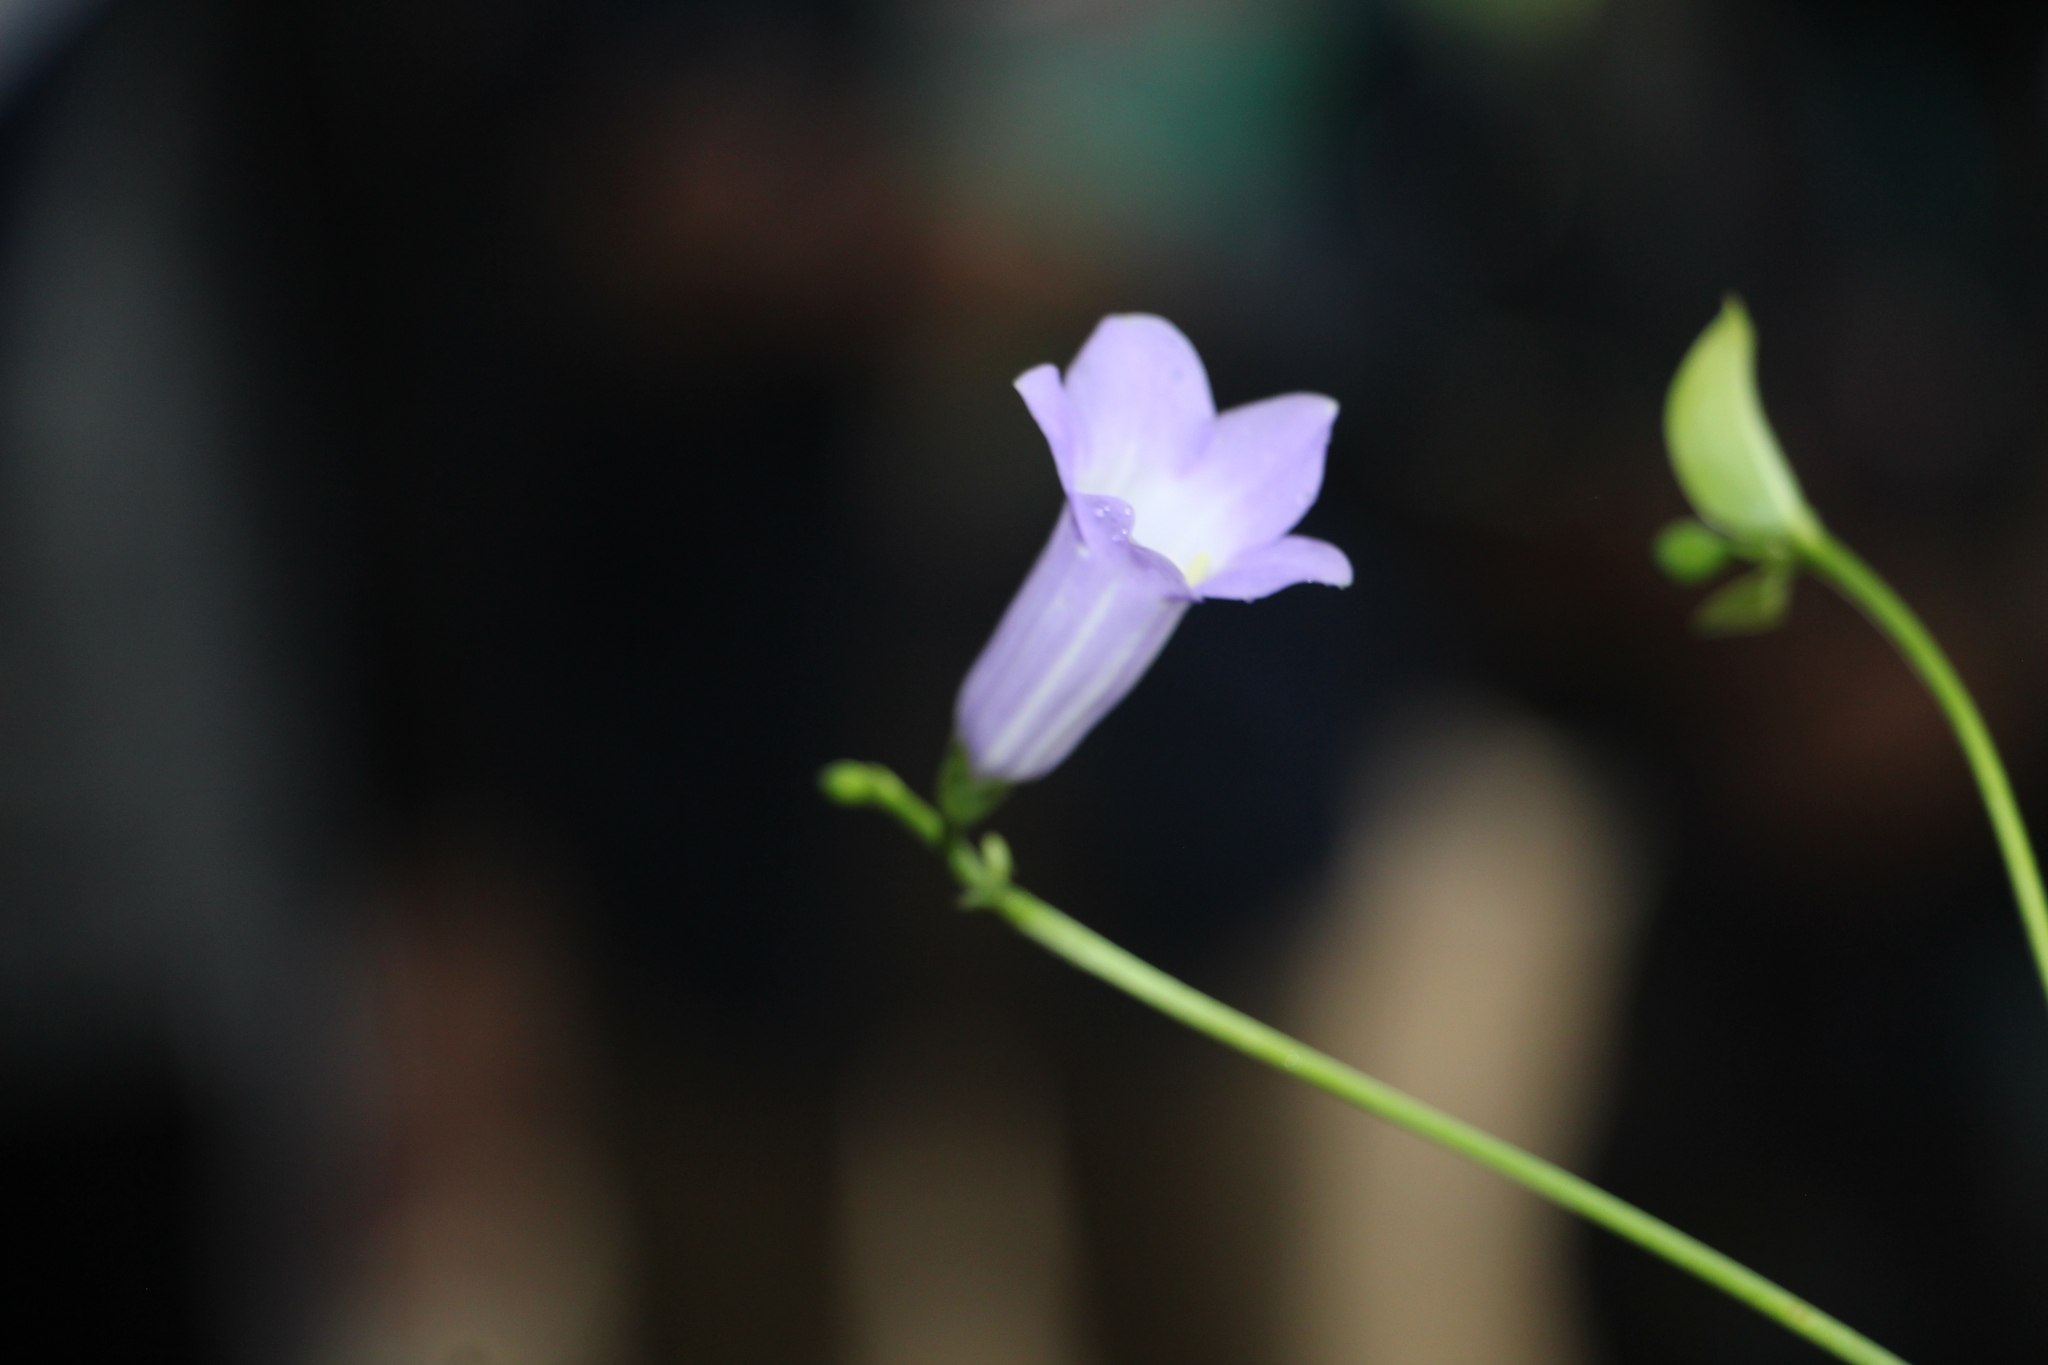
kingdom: Plantae
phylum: Tracheophyta
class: Magnoliopsida
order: Gentianales
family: Gentianaceae
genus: Chelonanthus
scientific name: Chelonanthus purpurascens
